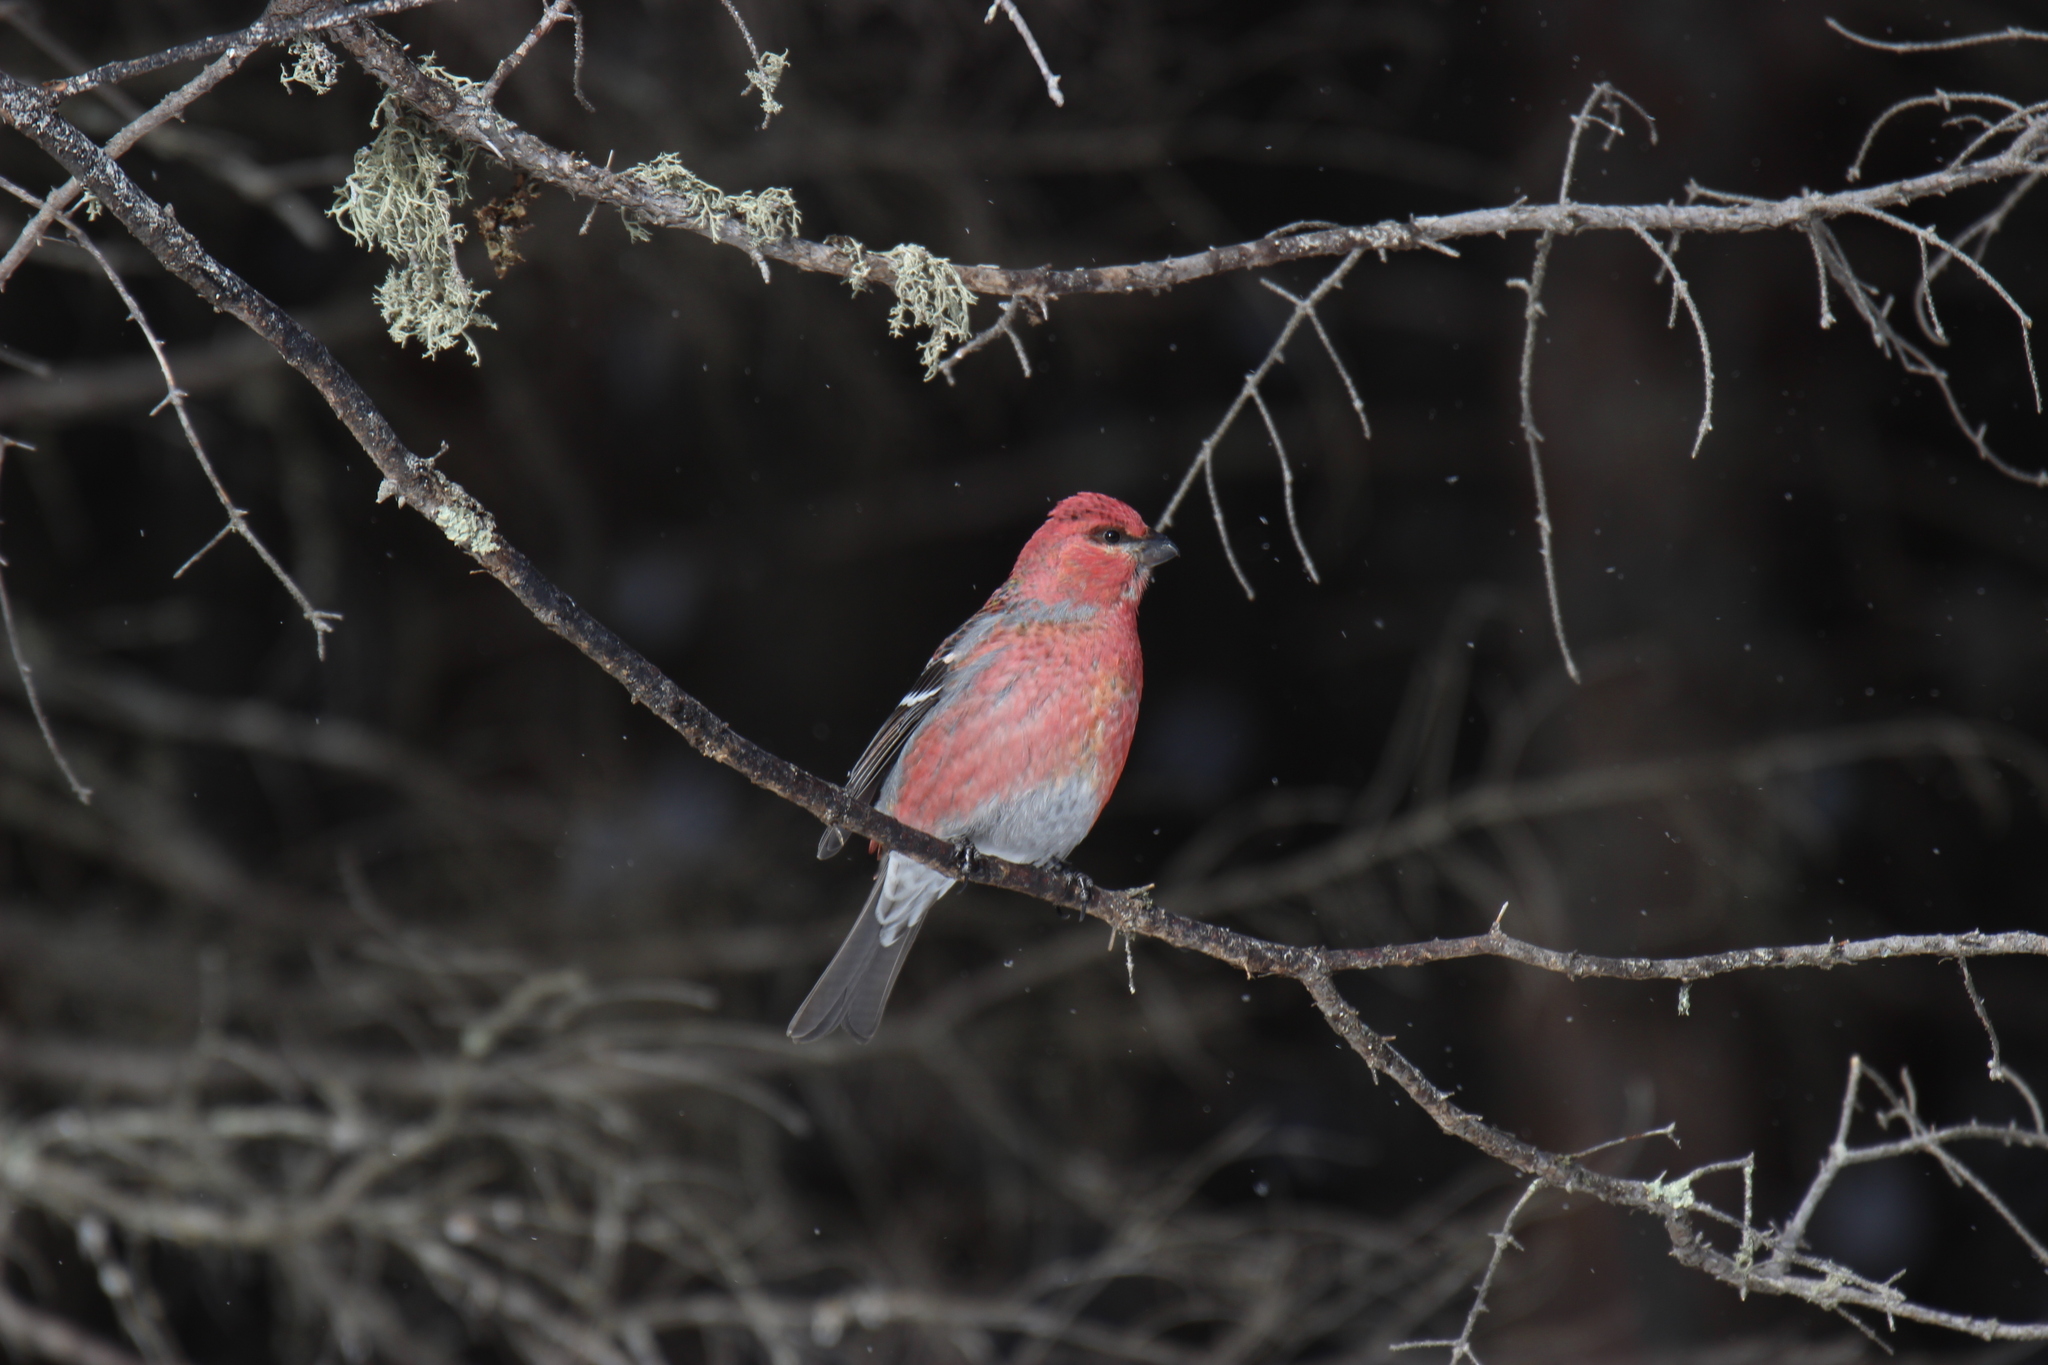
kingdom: Animalia
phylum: Chordata
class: Aves
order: Passeriformes
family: Fringillidae
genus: Pinicola
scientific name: Pinicola enucleator
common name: Pine grosbeak
